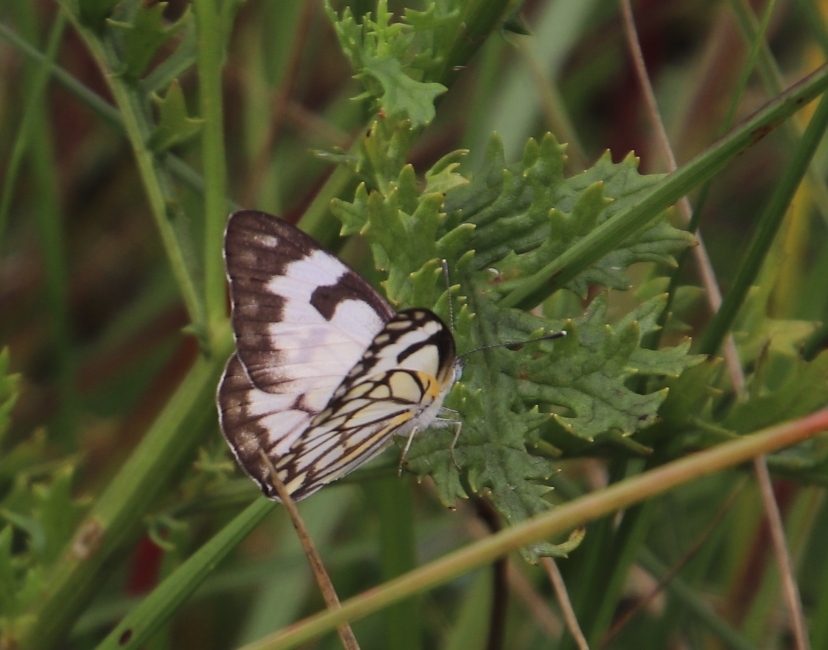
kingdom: Animalia
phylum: Arthropoda
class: Insecta
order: Lepidoptera
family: Pieridae
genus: Belenois
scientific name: Belenois aurota
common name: Brown-veined white
